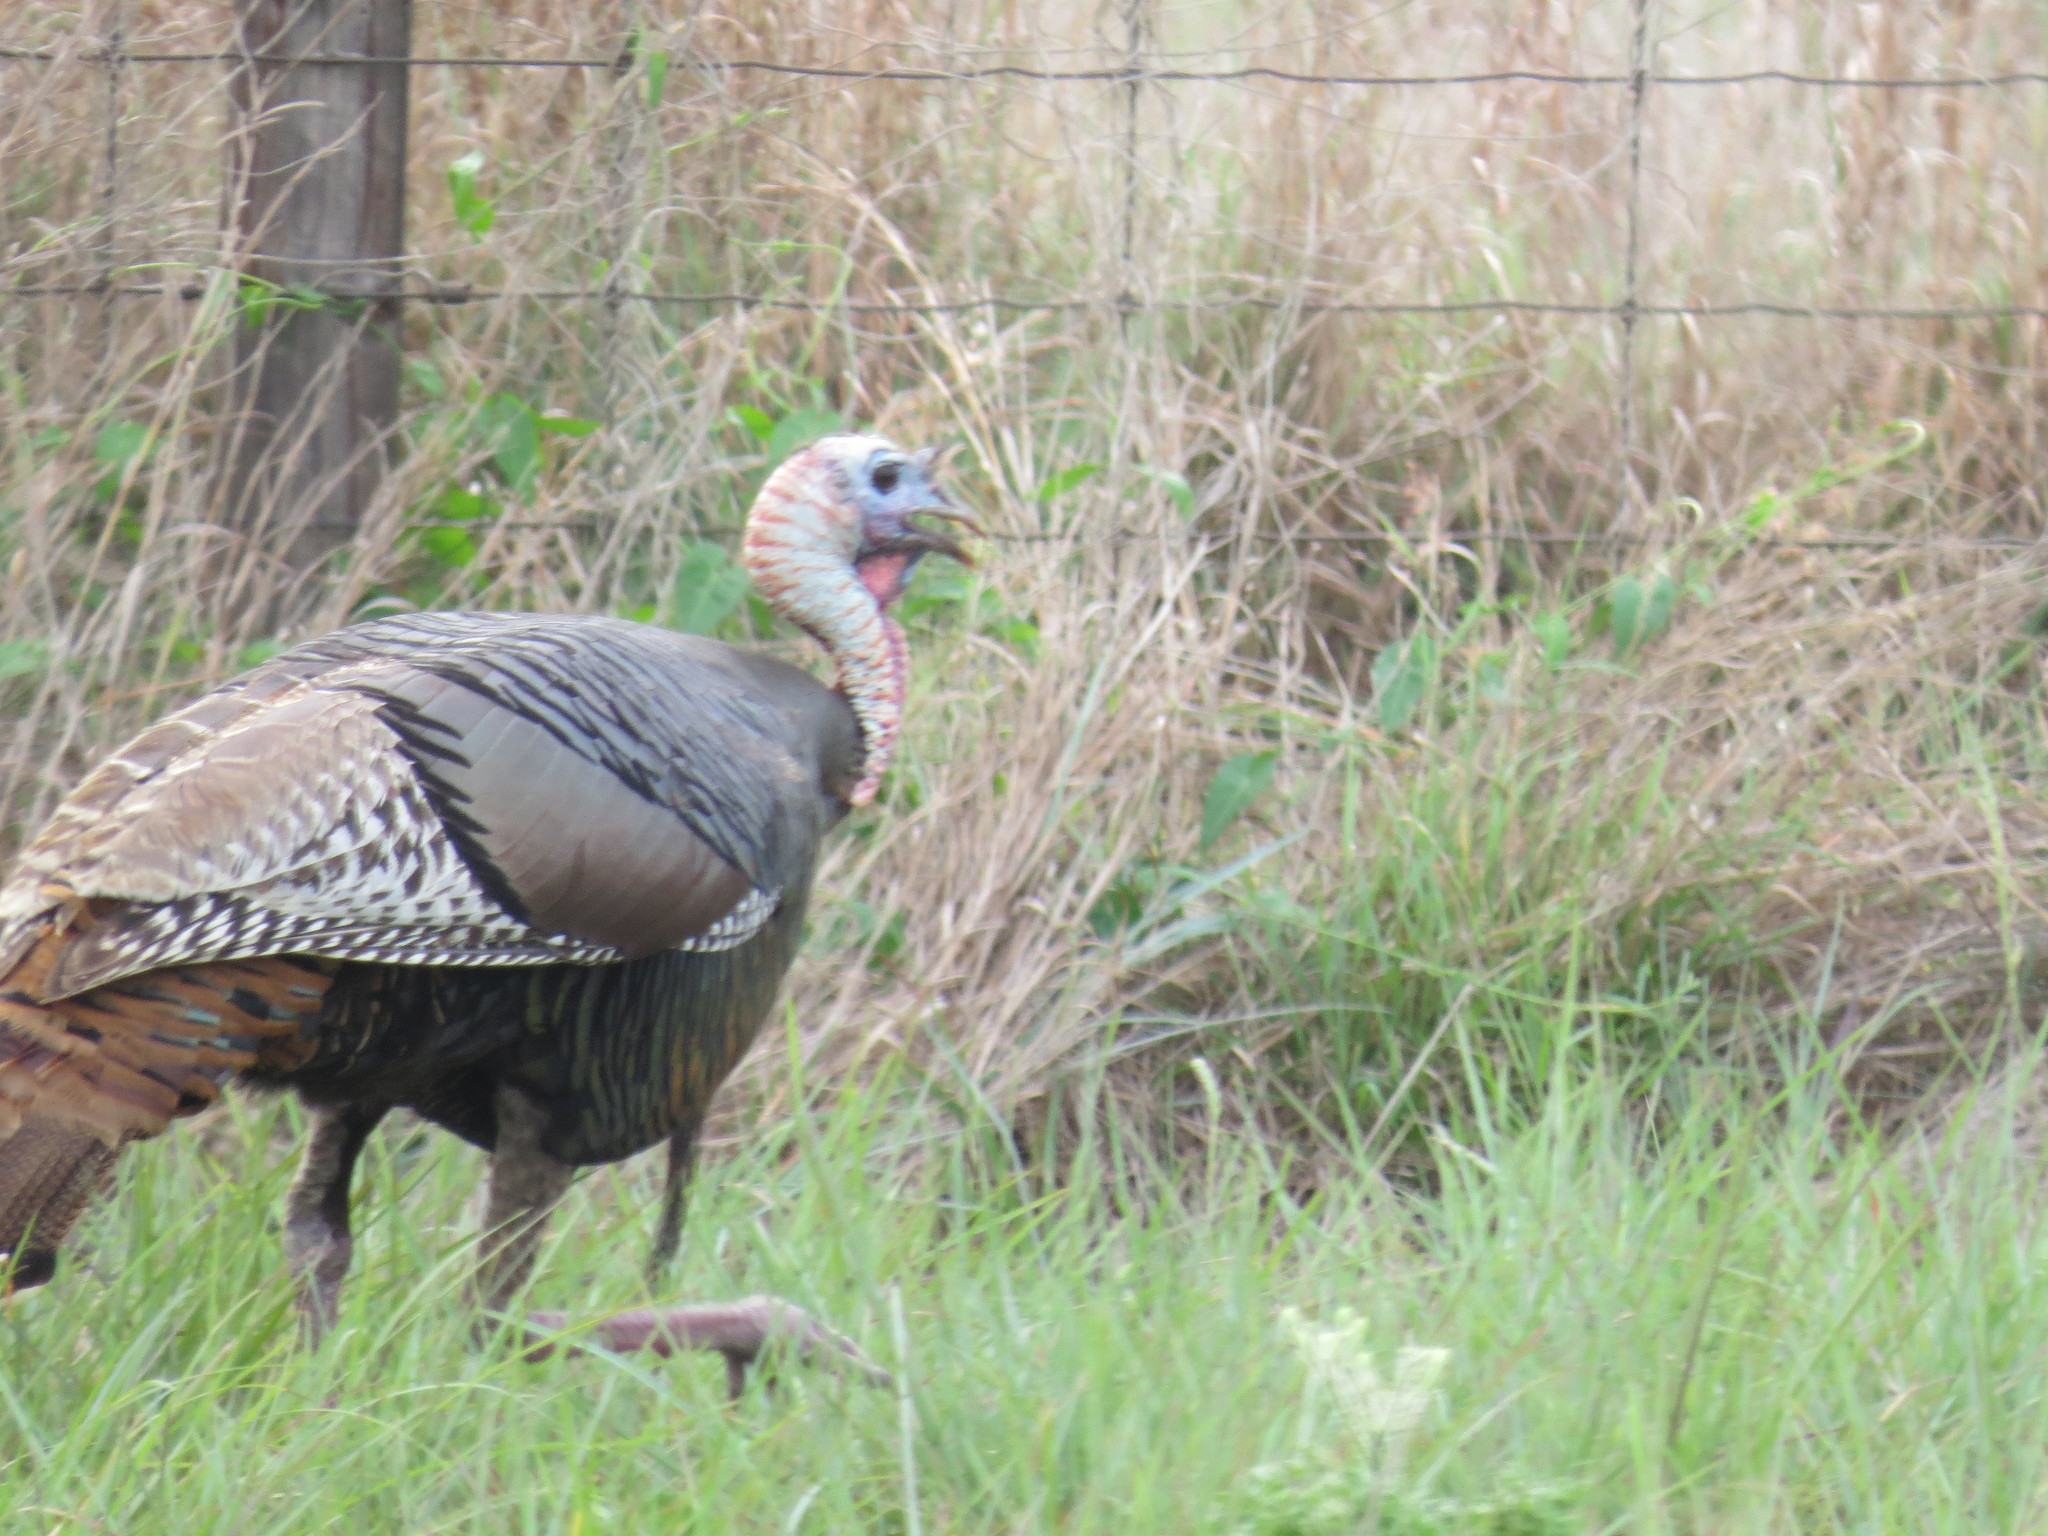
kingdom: Animalia
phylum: Chordata
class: Aves
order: Galliformes
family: Phasianidae
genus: Meleagris
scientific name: Meleagris gallopavo
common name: Wild turkey
